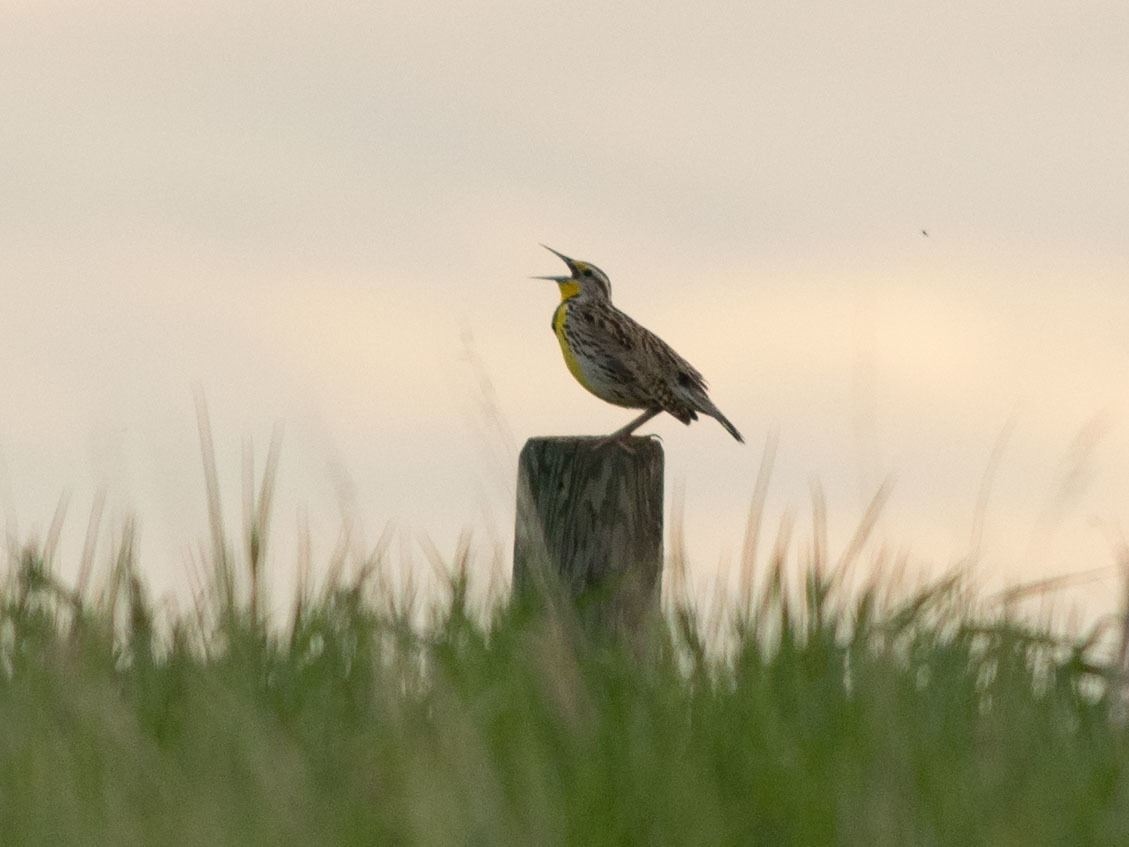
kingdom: Animalia
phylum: Chordata
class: Aves
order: Passeriformes
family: Icteridae
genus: Sturnella
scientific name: Sturnella neglecta
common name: Western meadowlark
